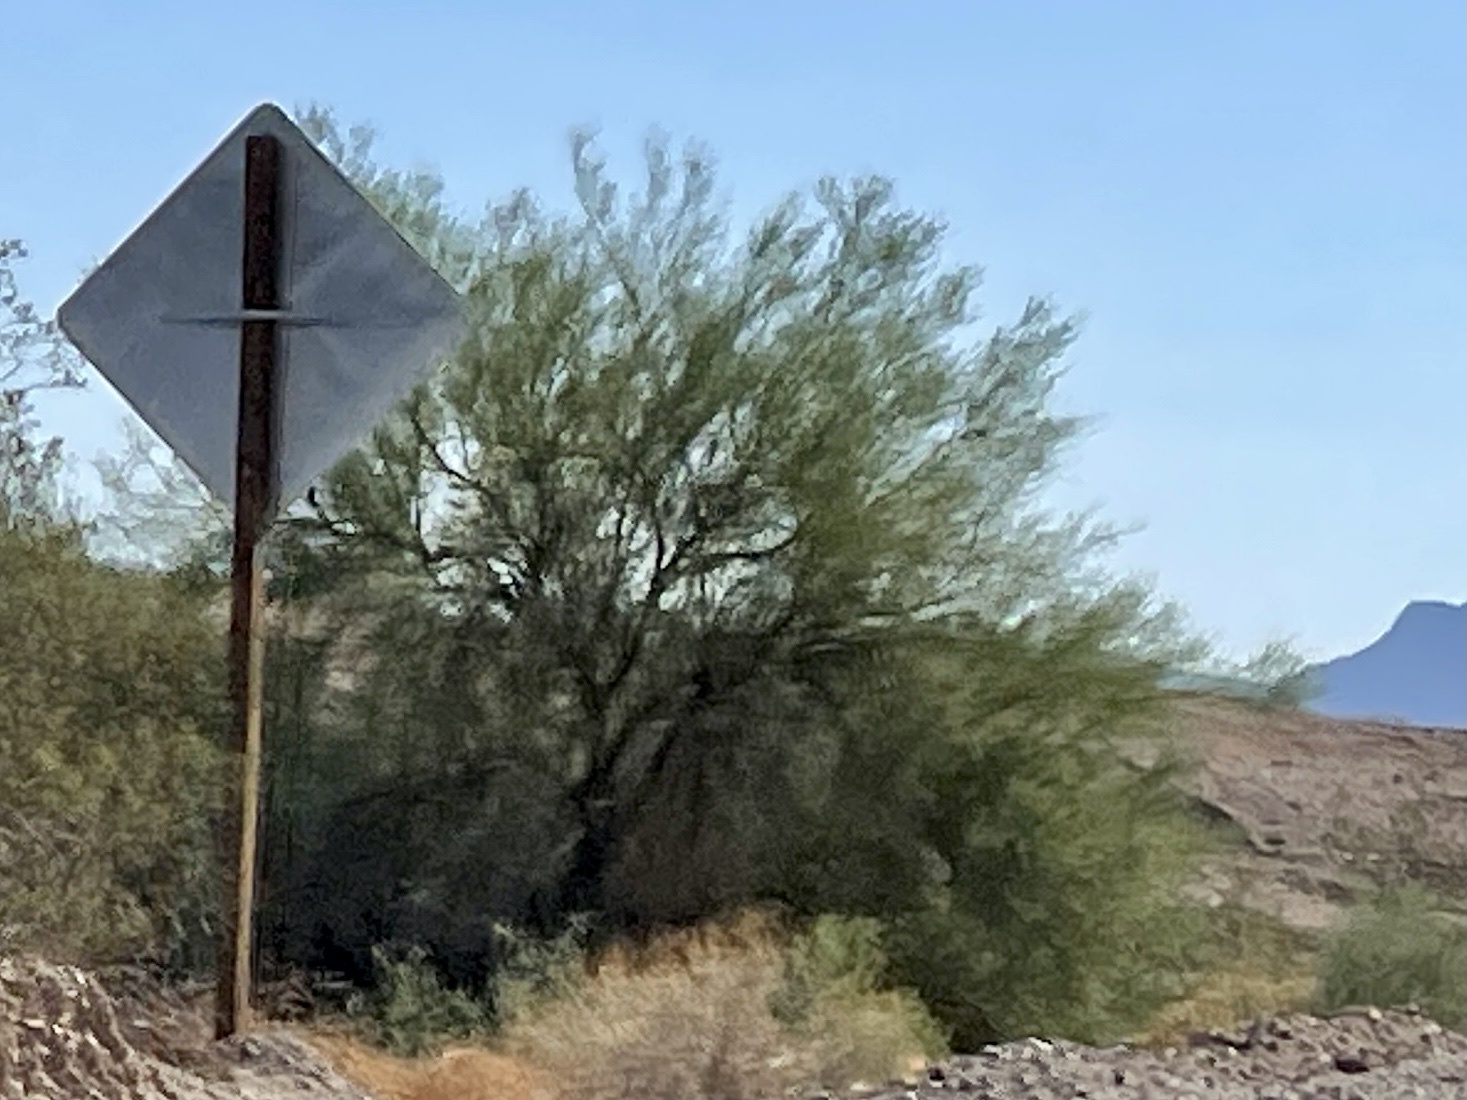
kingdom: Plantae
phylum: Tracheophyta
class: Magnoliopsida
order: Fabales
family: Fabaceae
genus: Parkinsonia
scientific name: Parkinsonia florida
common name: Blue paloverde
